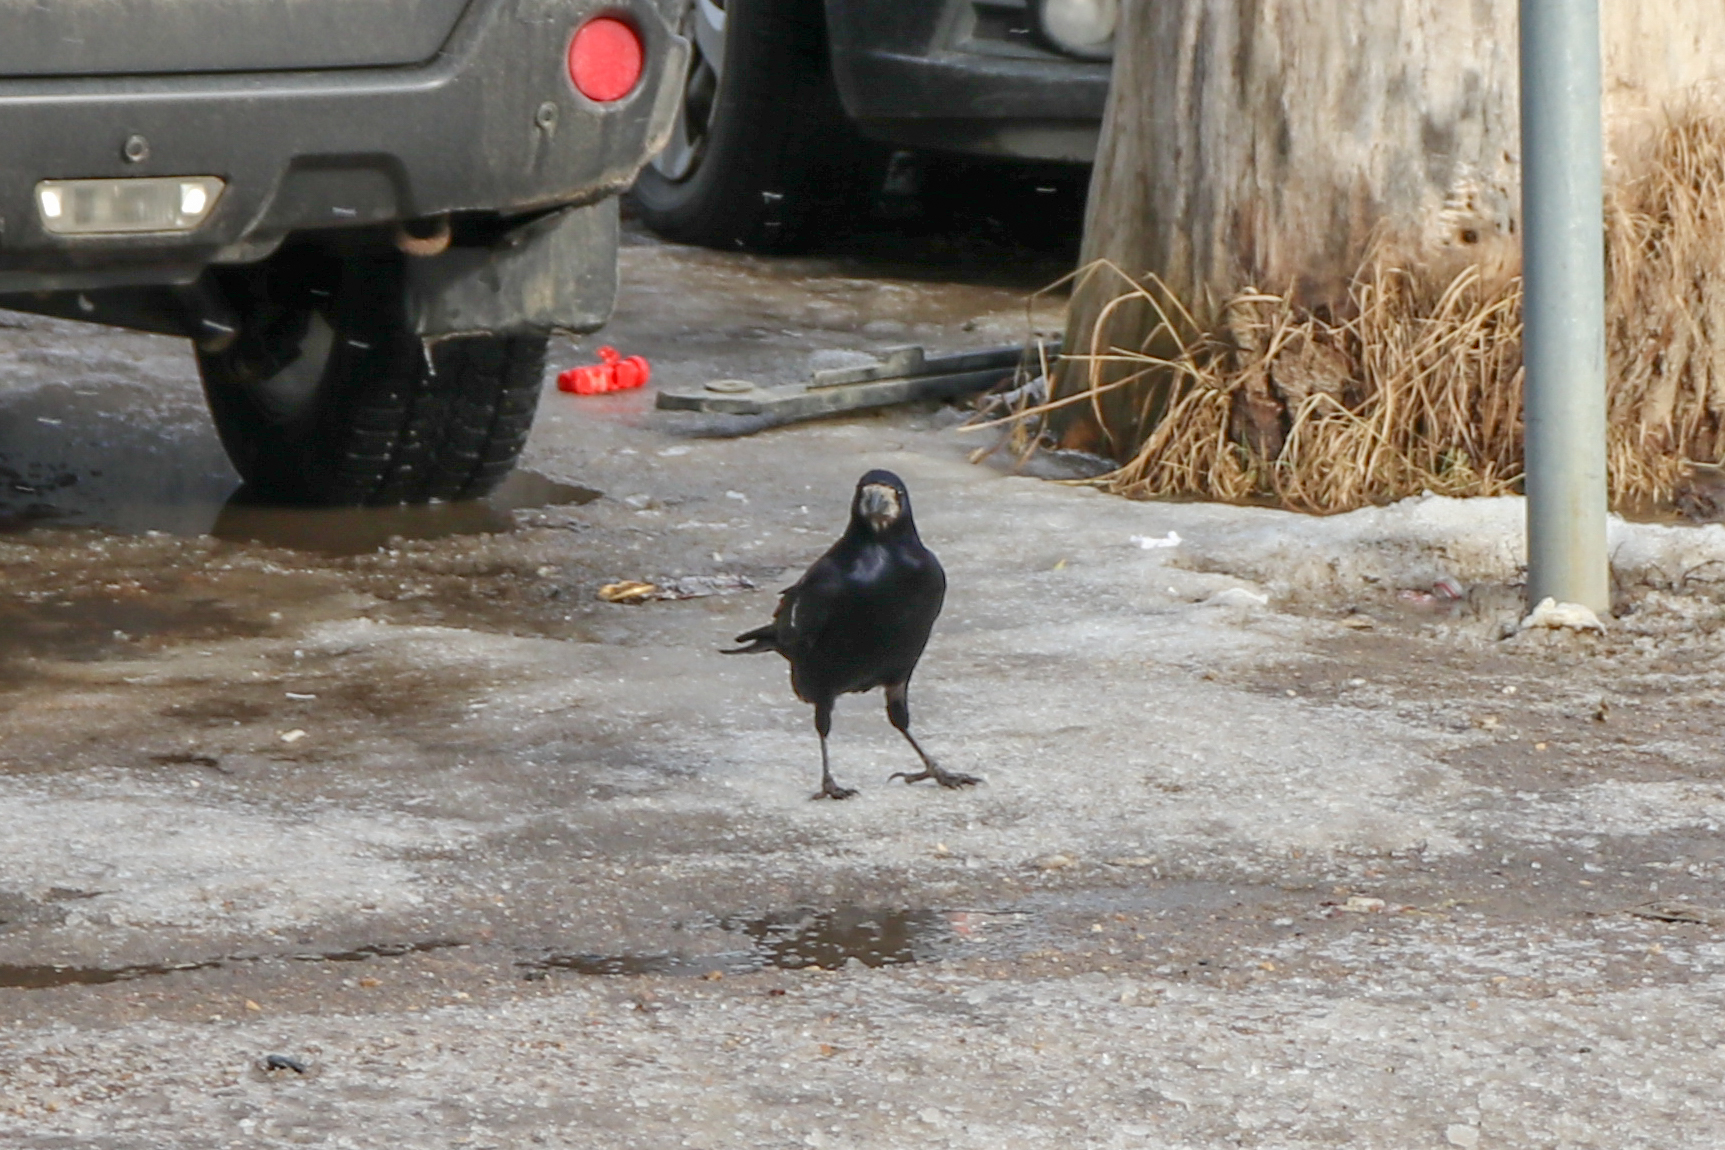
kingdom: Animalia
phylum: Chordata
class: Aves
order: Passeriformes
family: Corvidae
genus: Corvus
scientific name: Corvus frugilegus
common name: Rook
